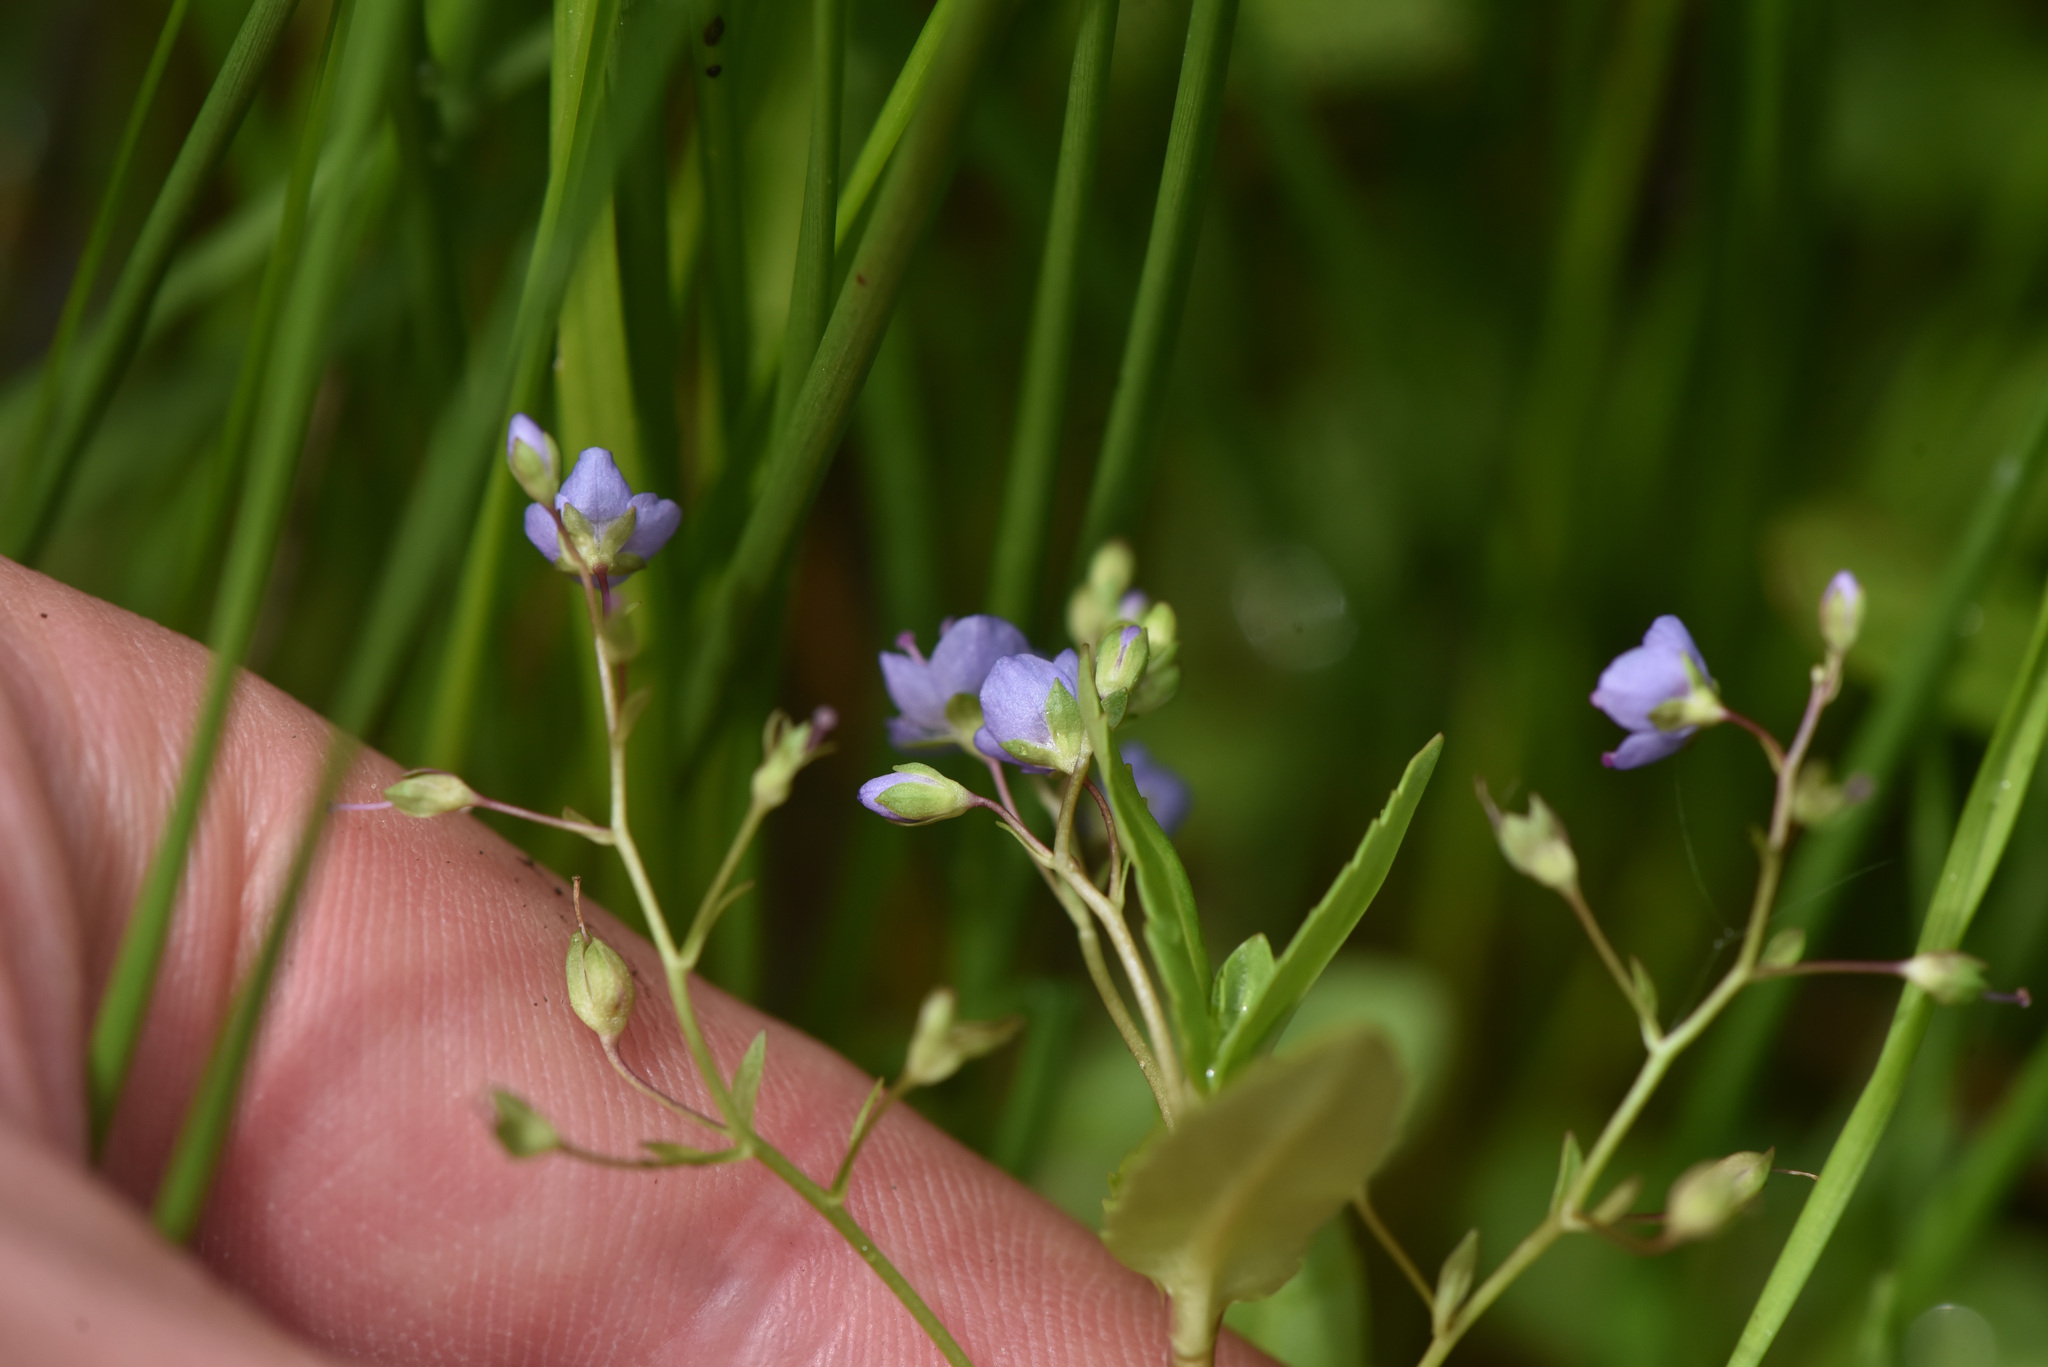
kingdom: Plantae
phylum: Tracheophyta
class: Magnoliopsida
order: Lamiales
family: Plantaginaceae
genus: Veronica
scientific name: Veronica americana
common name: American brooklime
